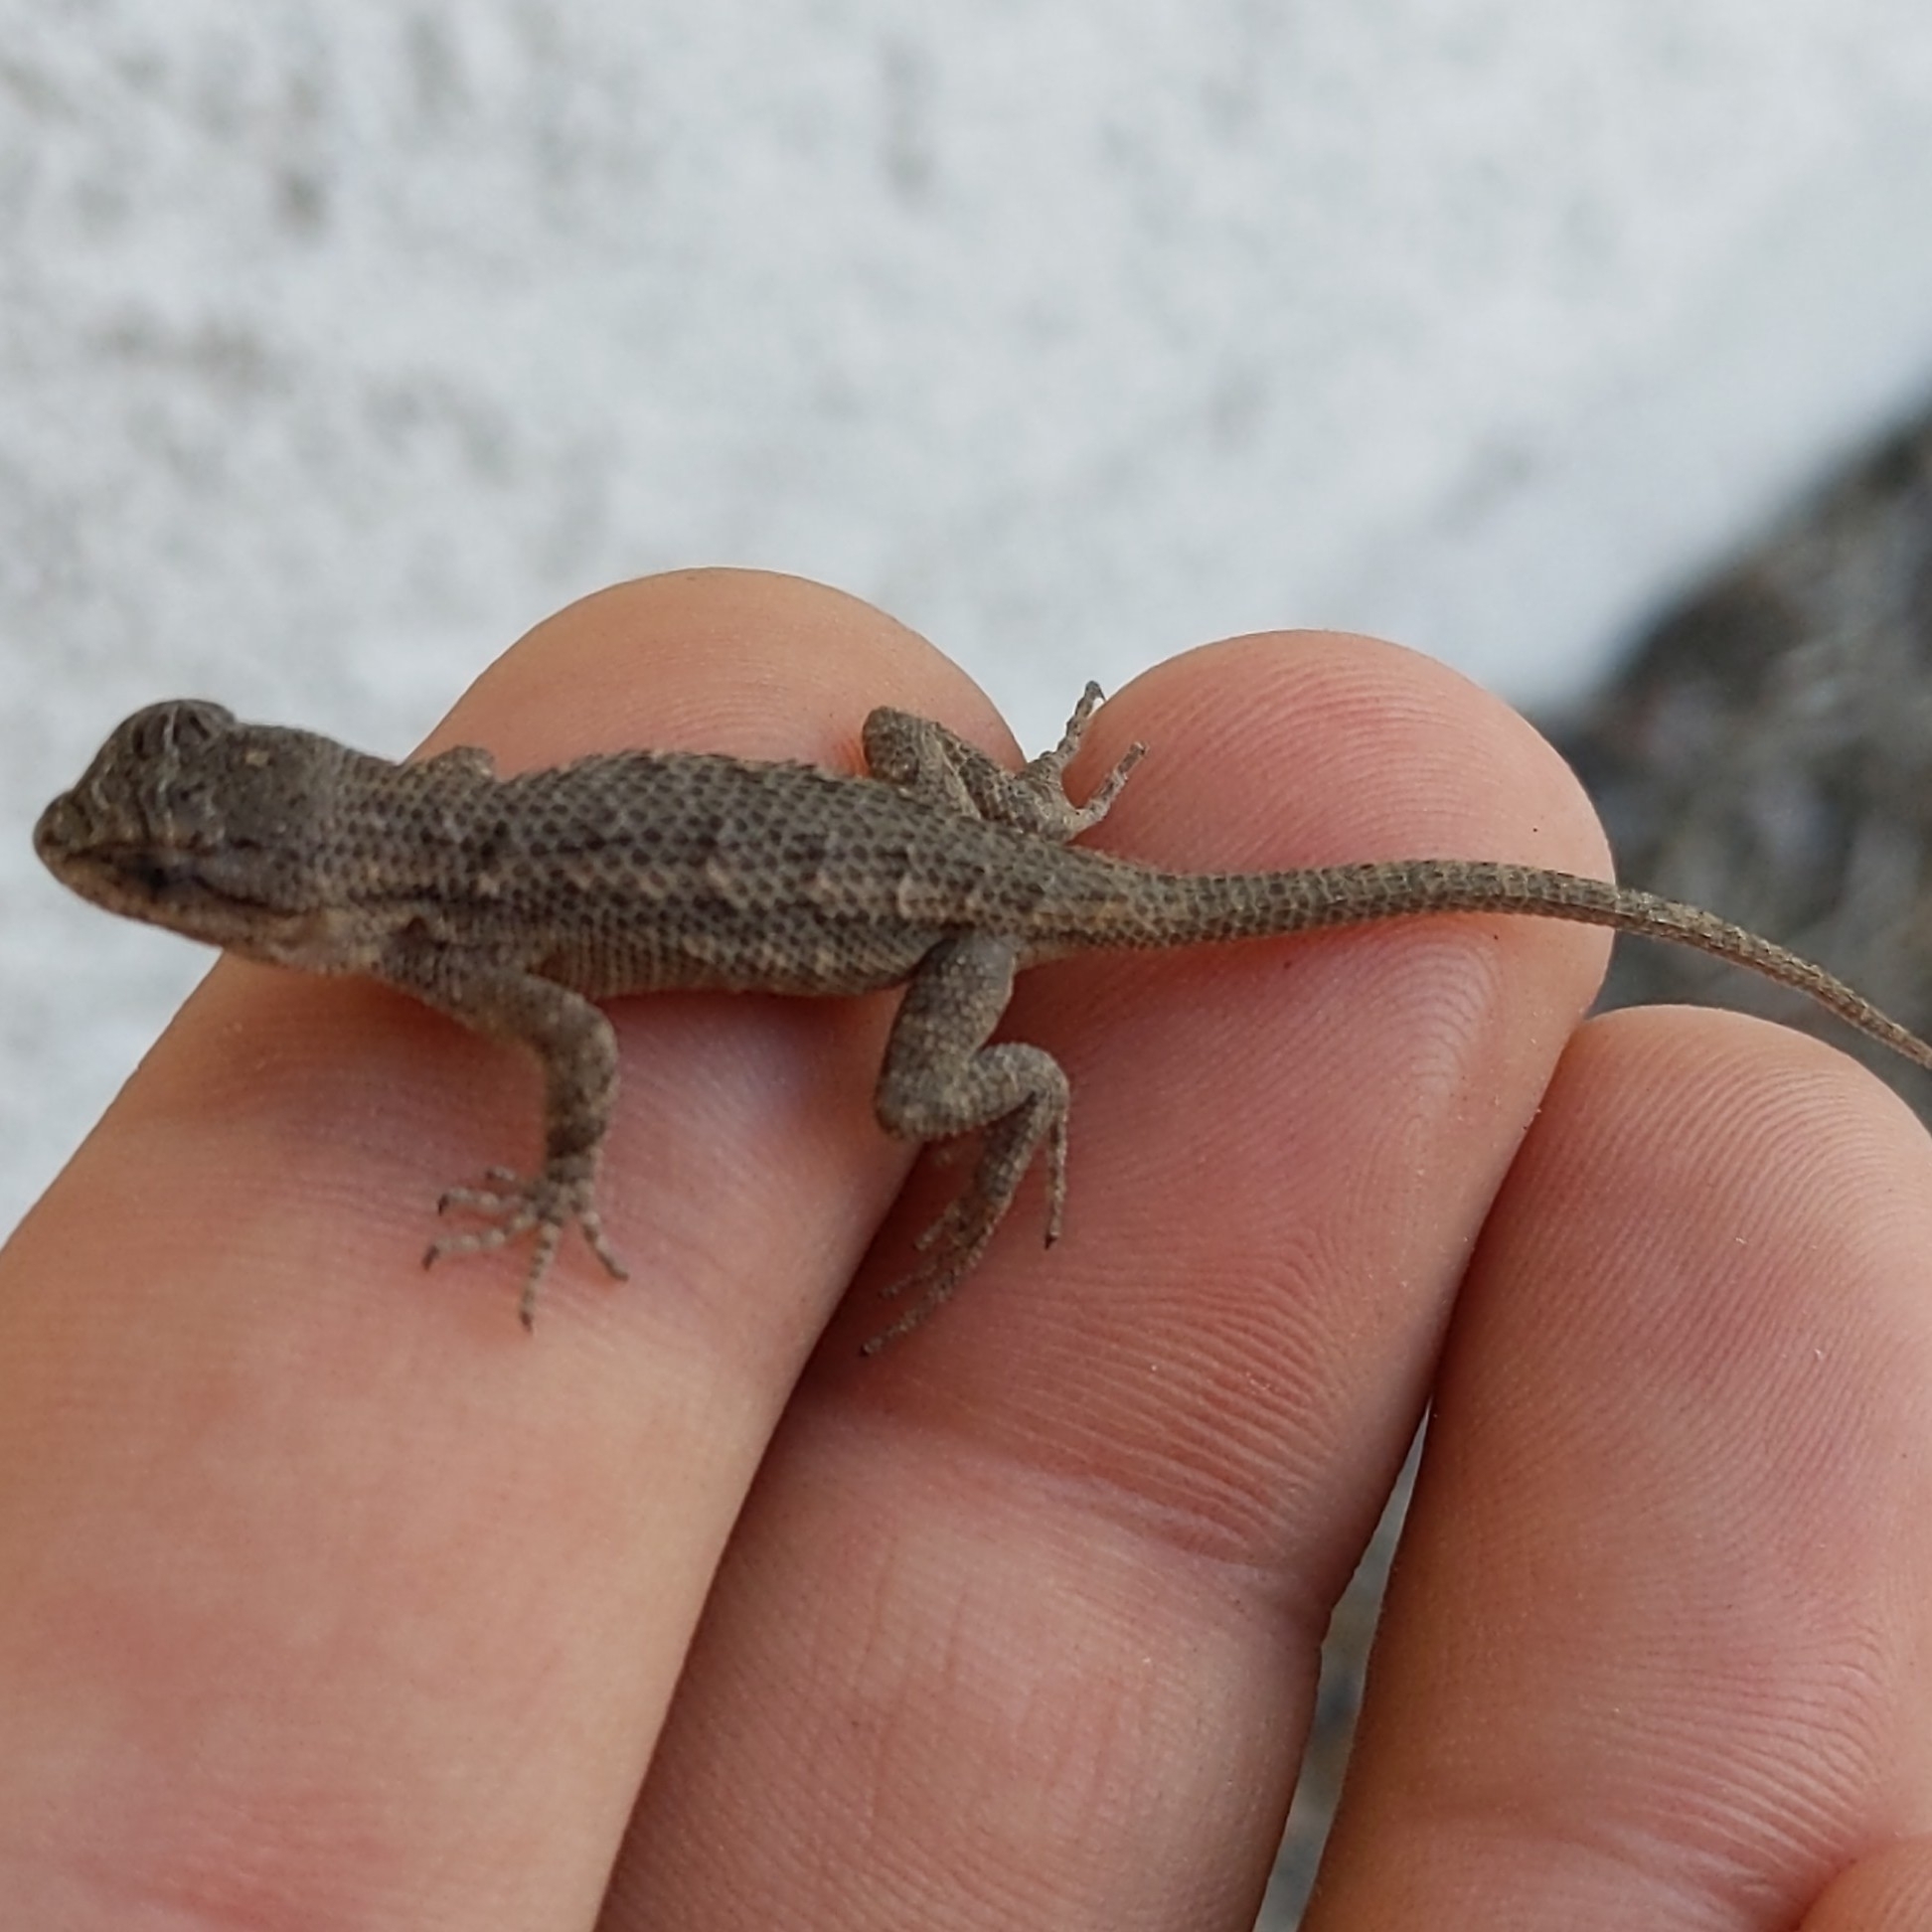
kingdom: Animalia
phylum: Chordata
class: Squamata
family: Phrynosomatidae
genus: Sceloporus
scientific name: Sceloporus occidentalis
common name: Western fence lizard
